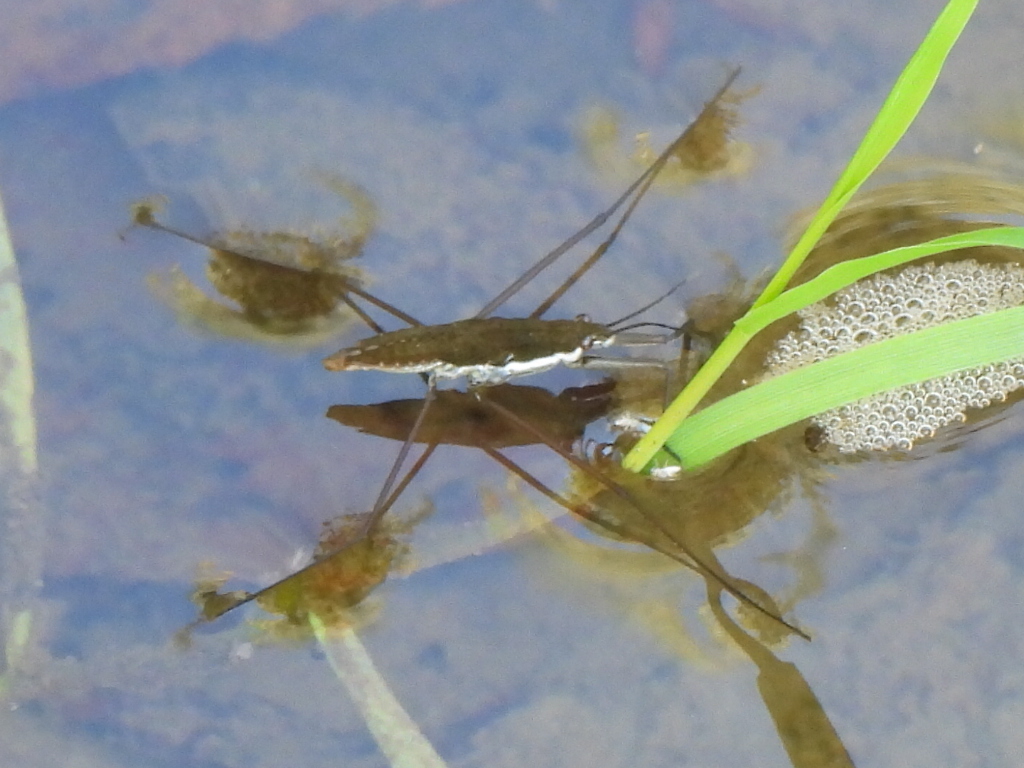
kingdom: Animalia
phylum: Arthropoda
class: Insecta
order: Hemiptera
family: Gerridae
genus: Aquarius
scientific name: Aquarius
